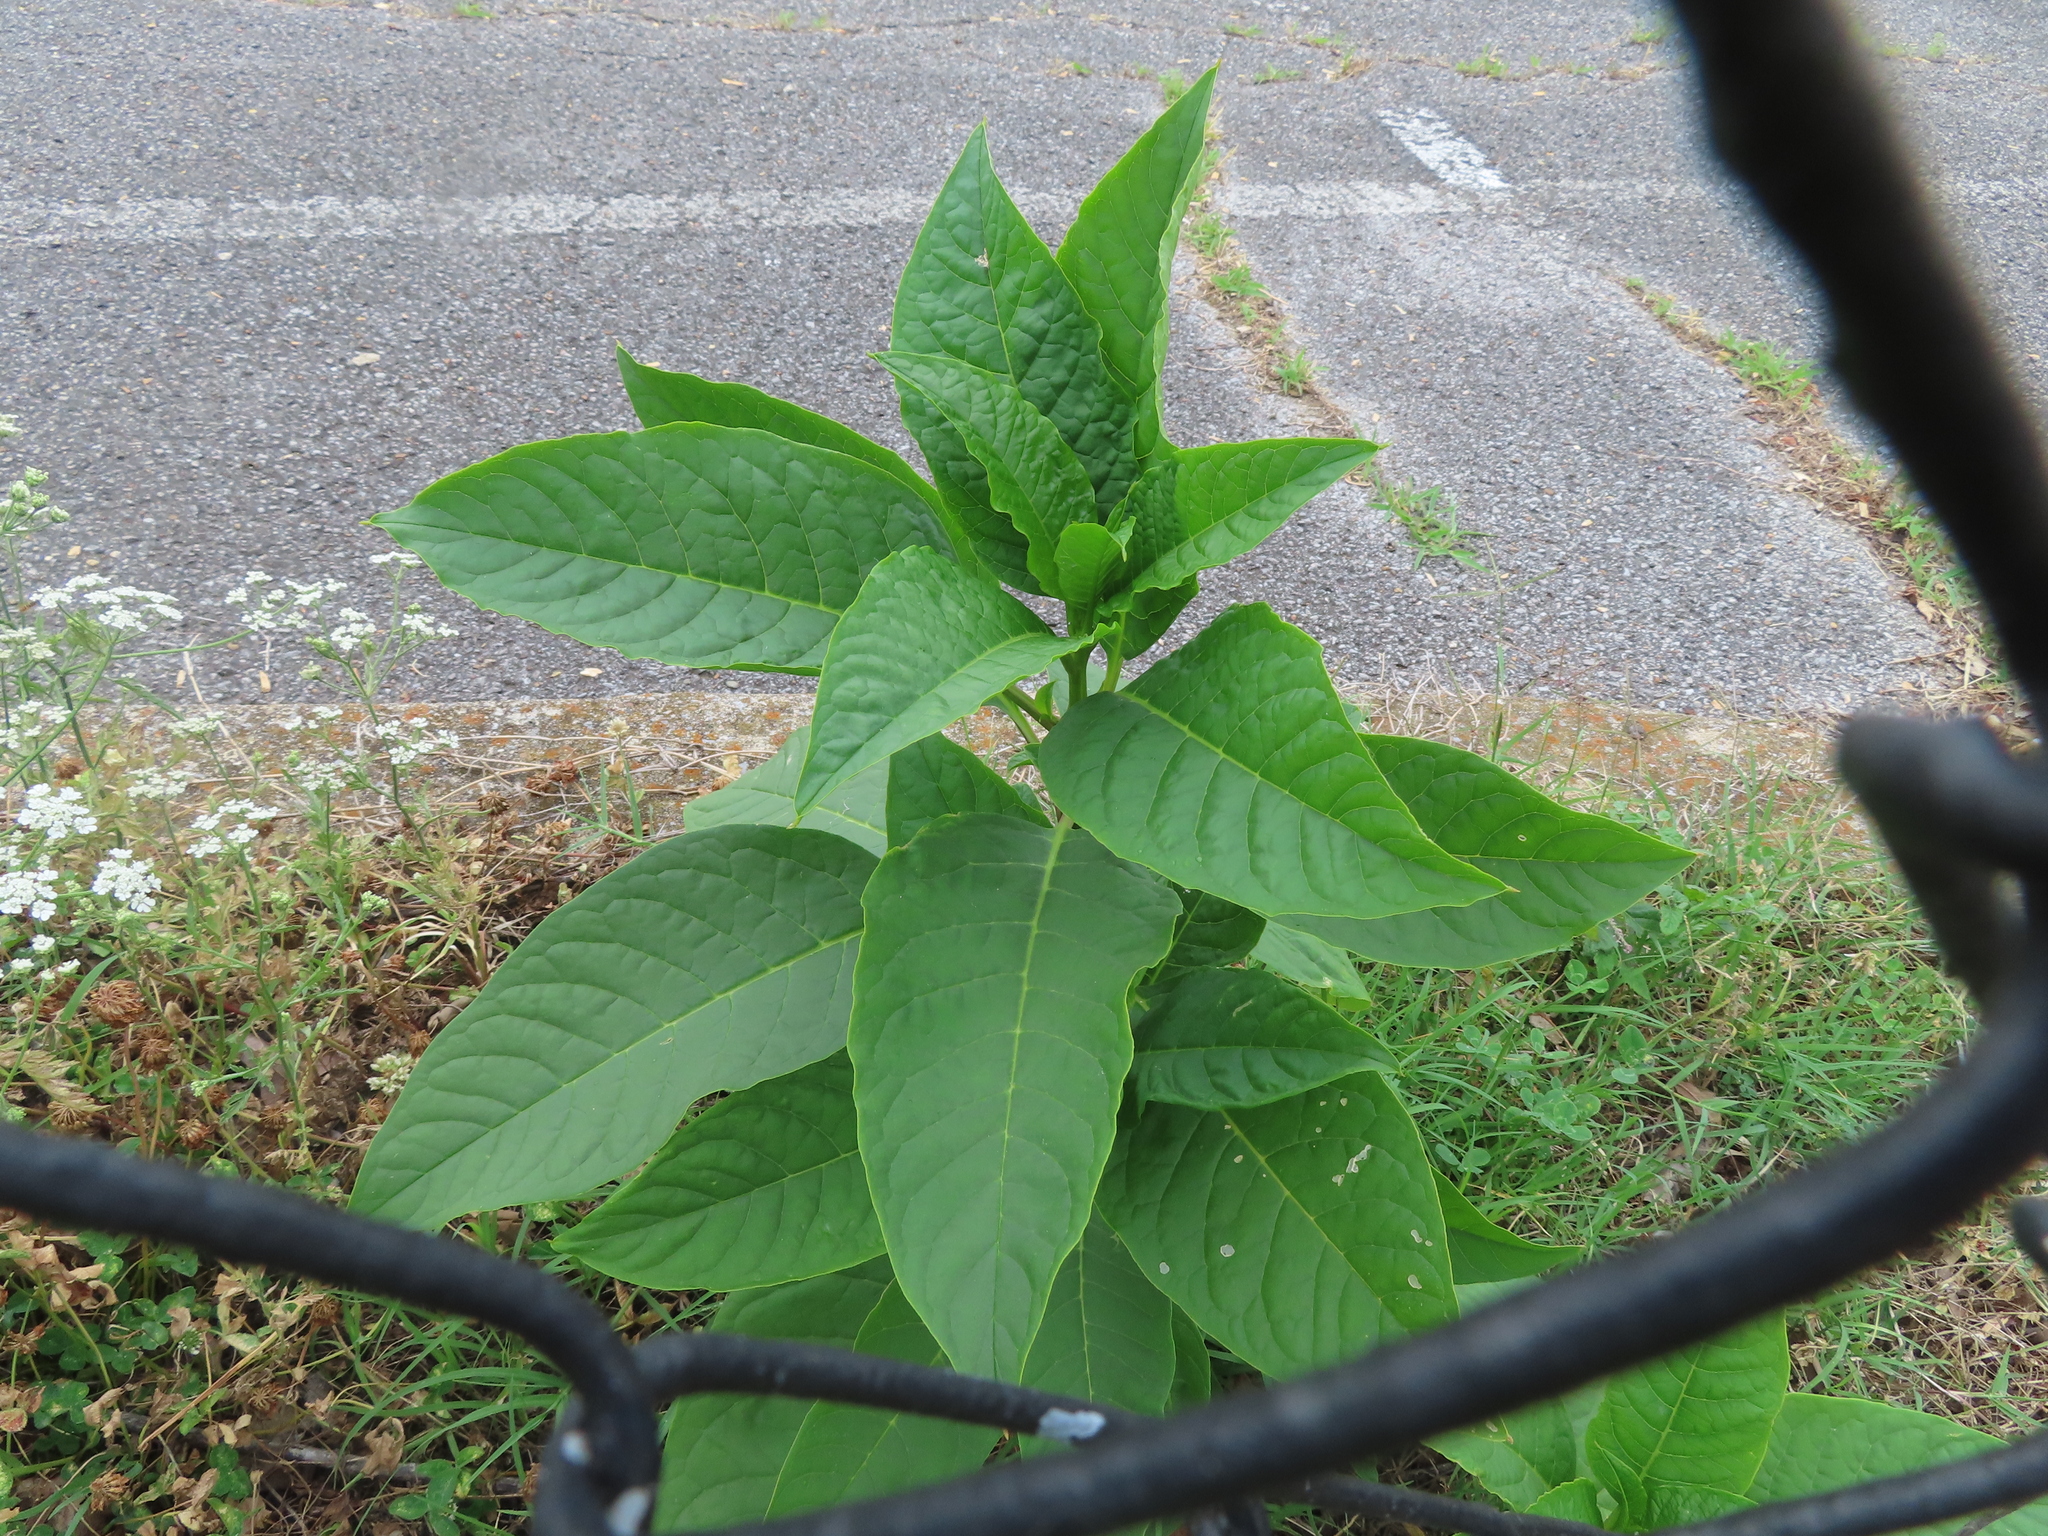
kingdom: Plantae
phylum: Tracheophyta
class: Magnoliopsida
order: Caryophyllales
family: Phytolaccaceae
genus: Phytolacca
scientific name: Phytolacca americana
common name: American pokeweed
